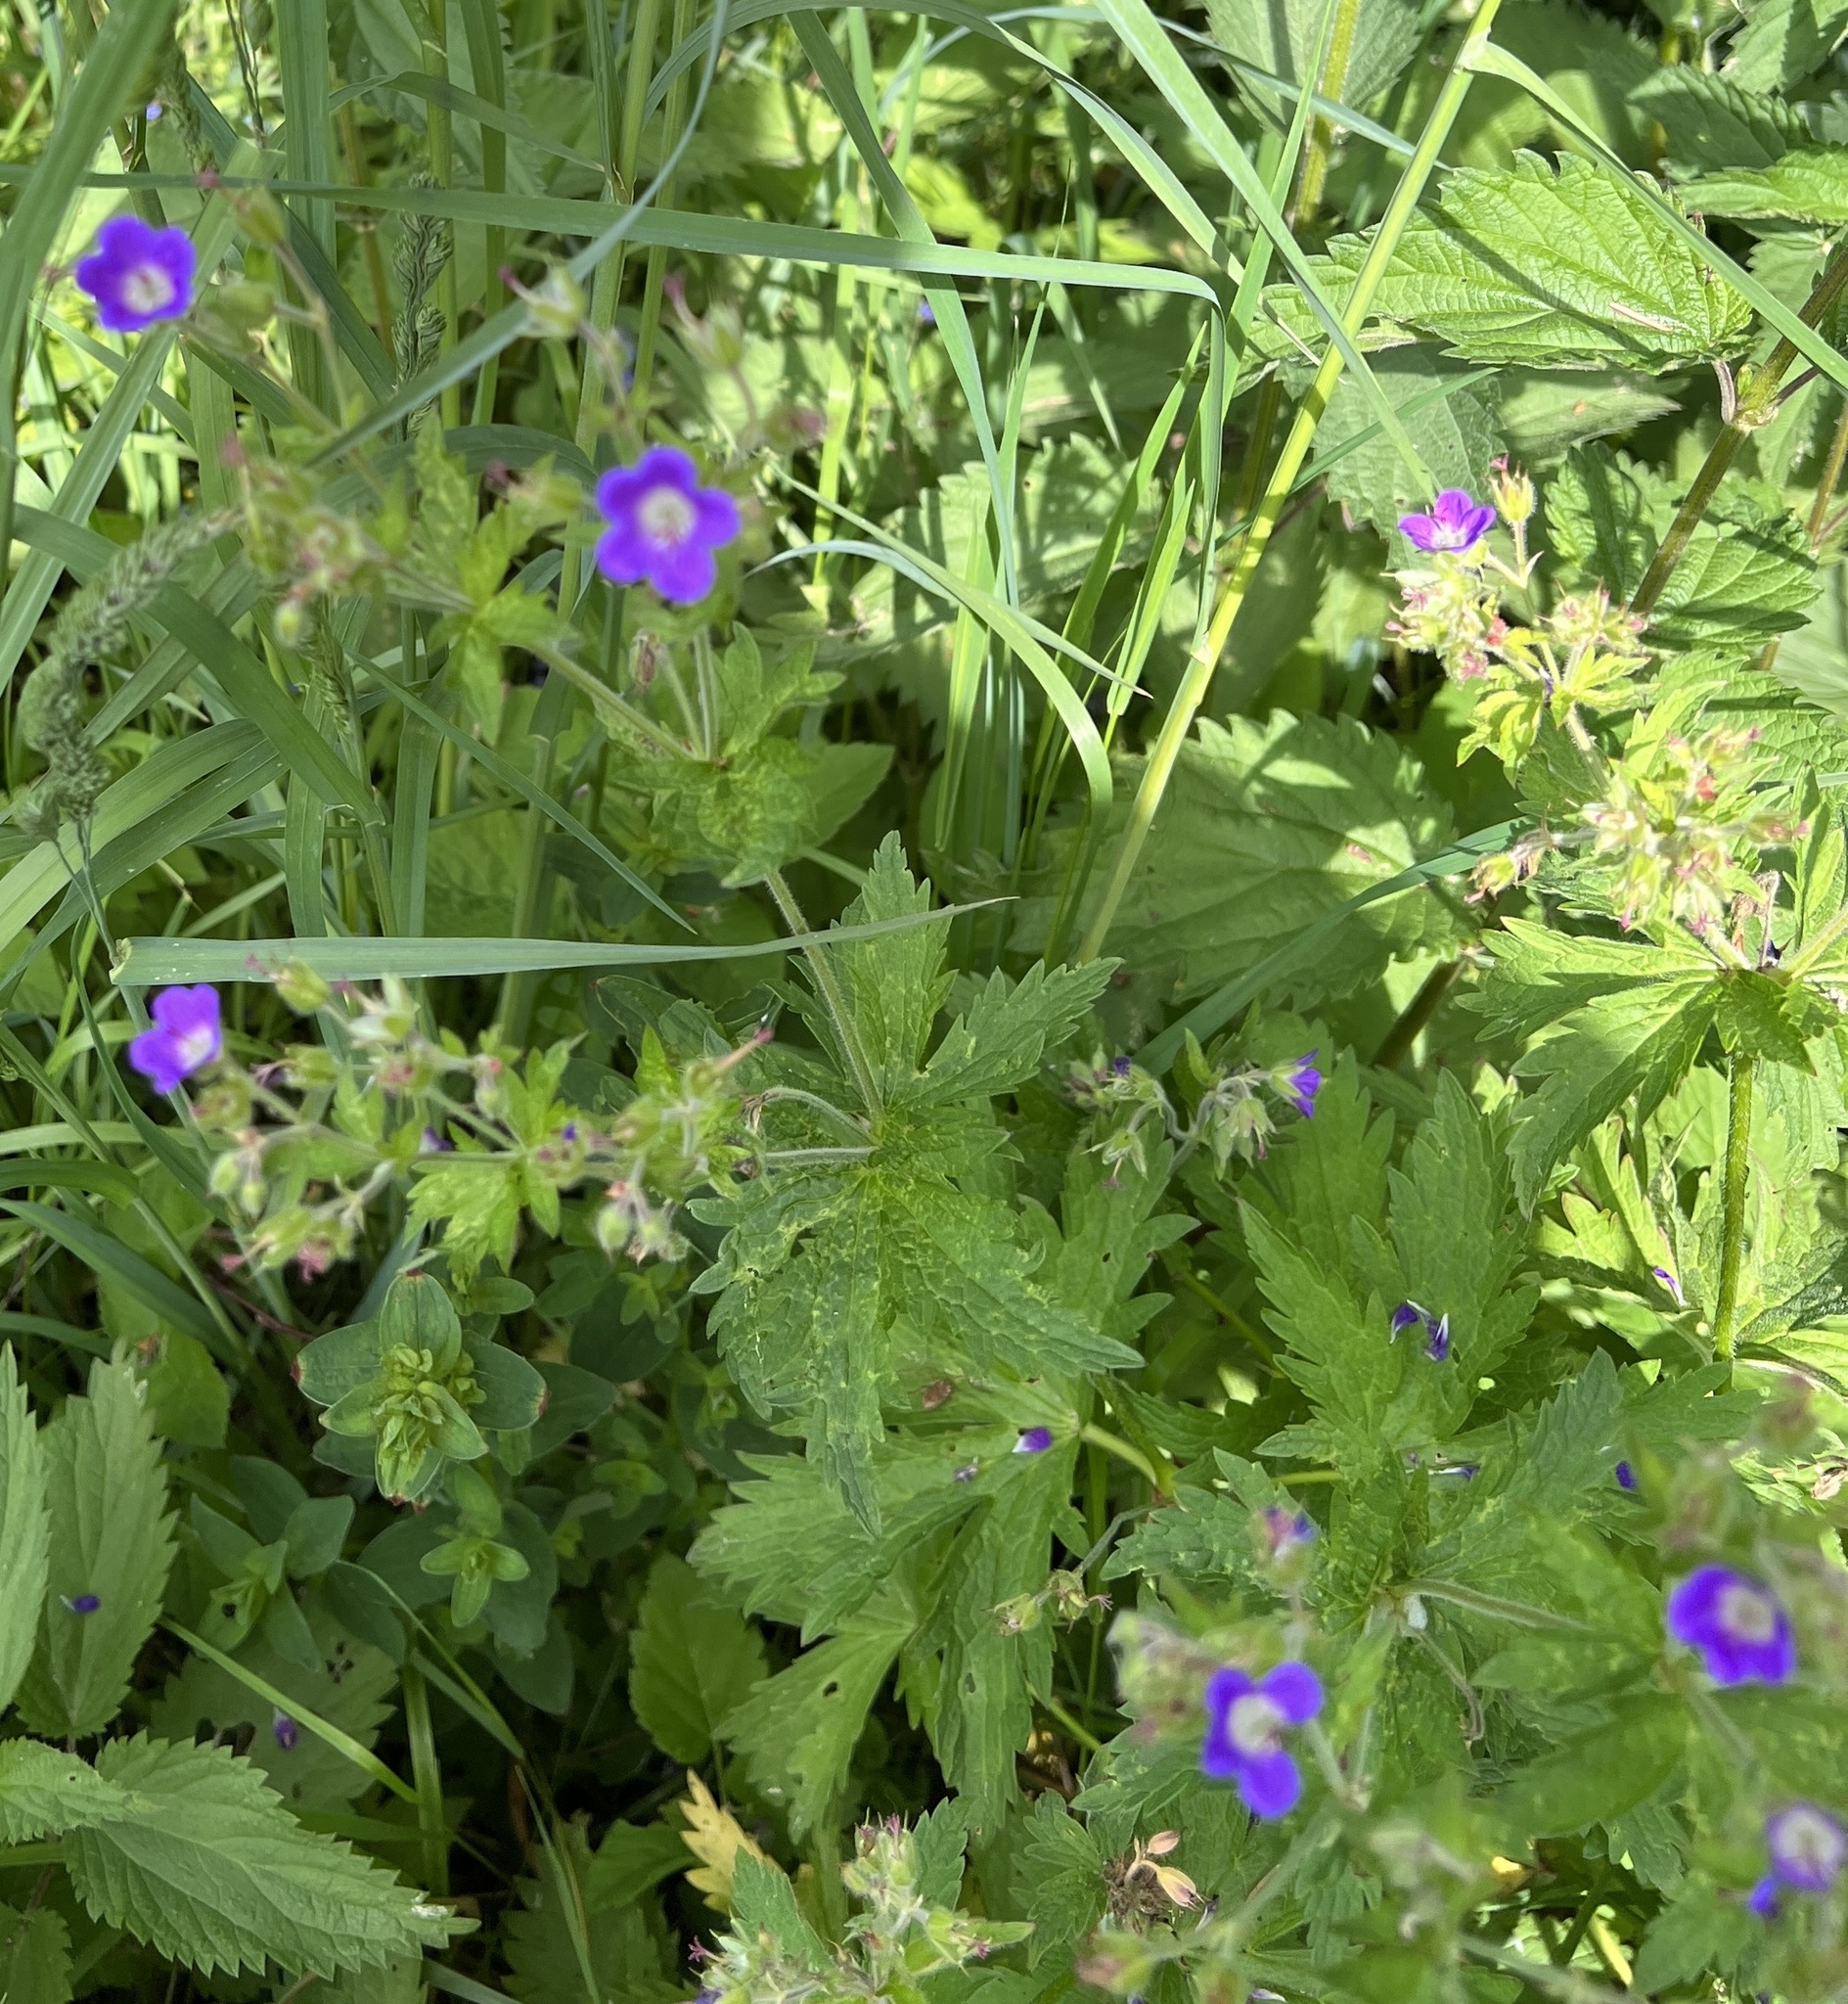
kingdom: Plantae
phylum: Tracheophyta
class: Magnoliopsida
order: Geraniales
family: Geraniaceae
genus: Geranium
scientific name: Geranium sylvaticum
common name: Wood crane's-bill
